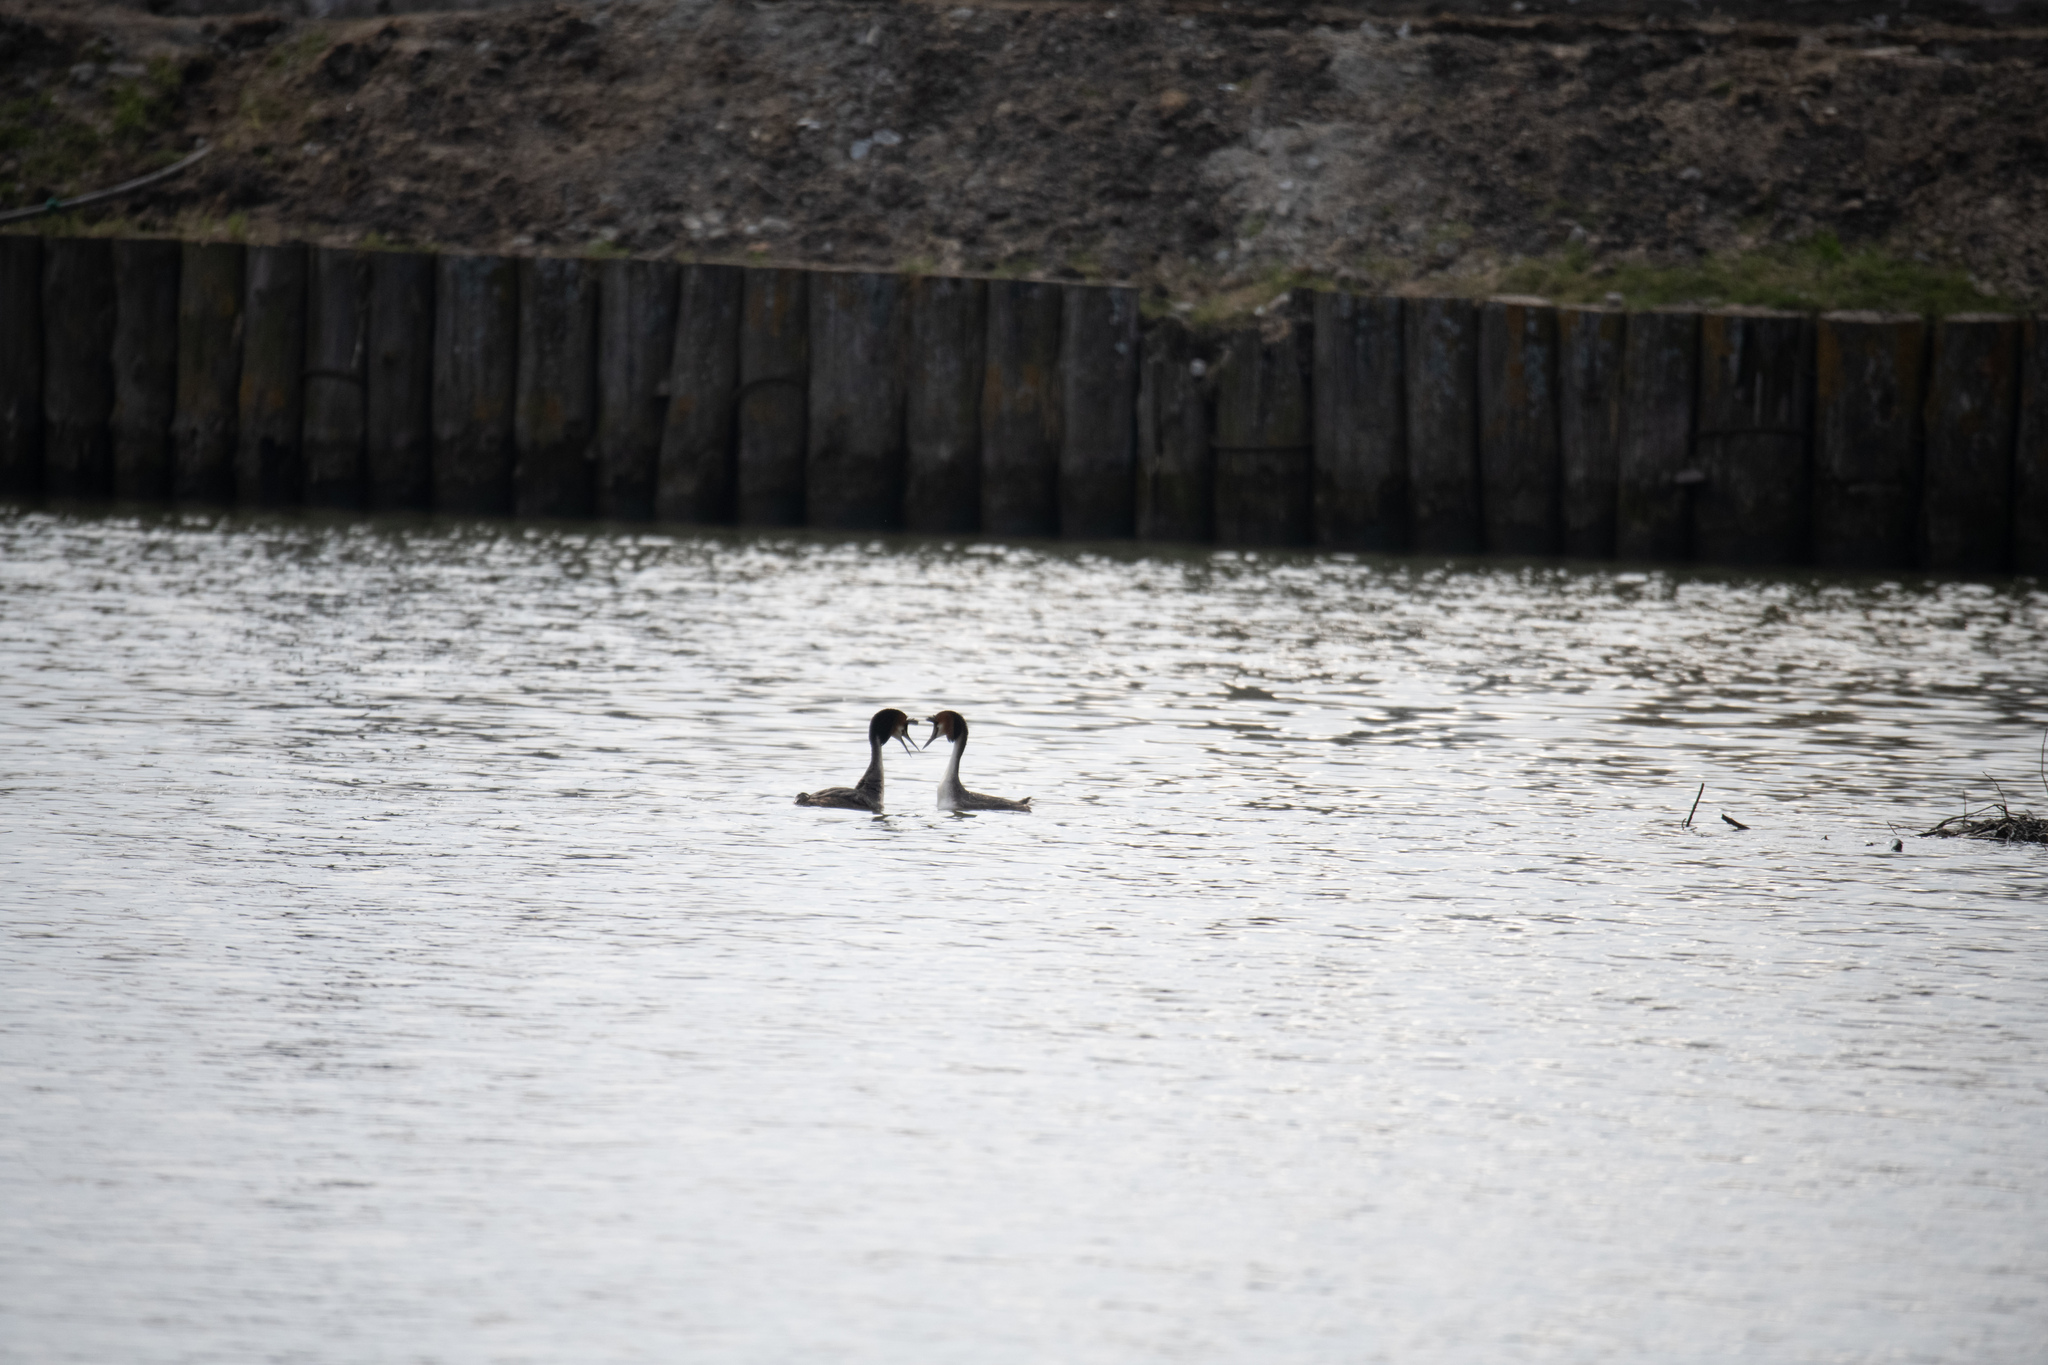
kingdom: Animalia
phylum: Chordata
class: Aves
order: Podicipediformes
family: Podicipedidae
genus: Podiceps
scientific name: Podiceps cristatus
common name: Great crested grebe
